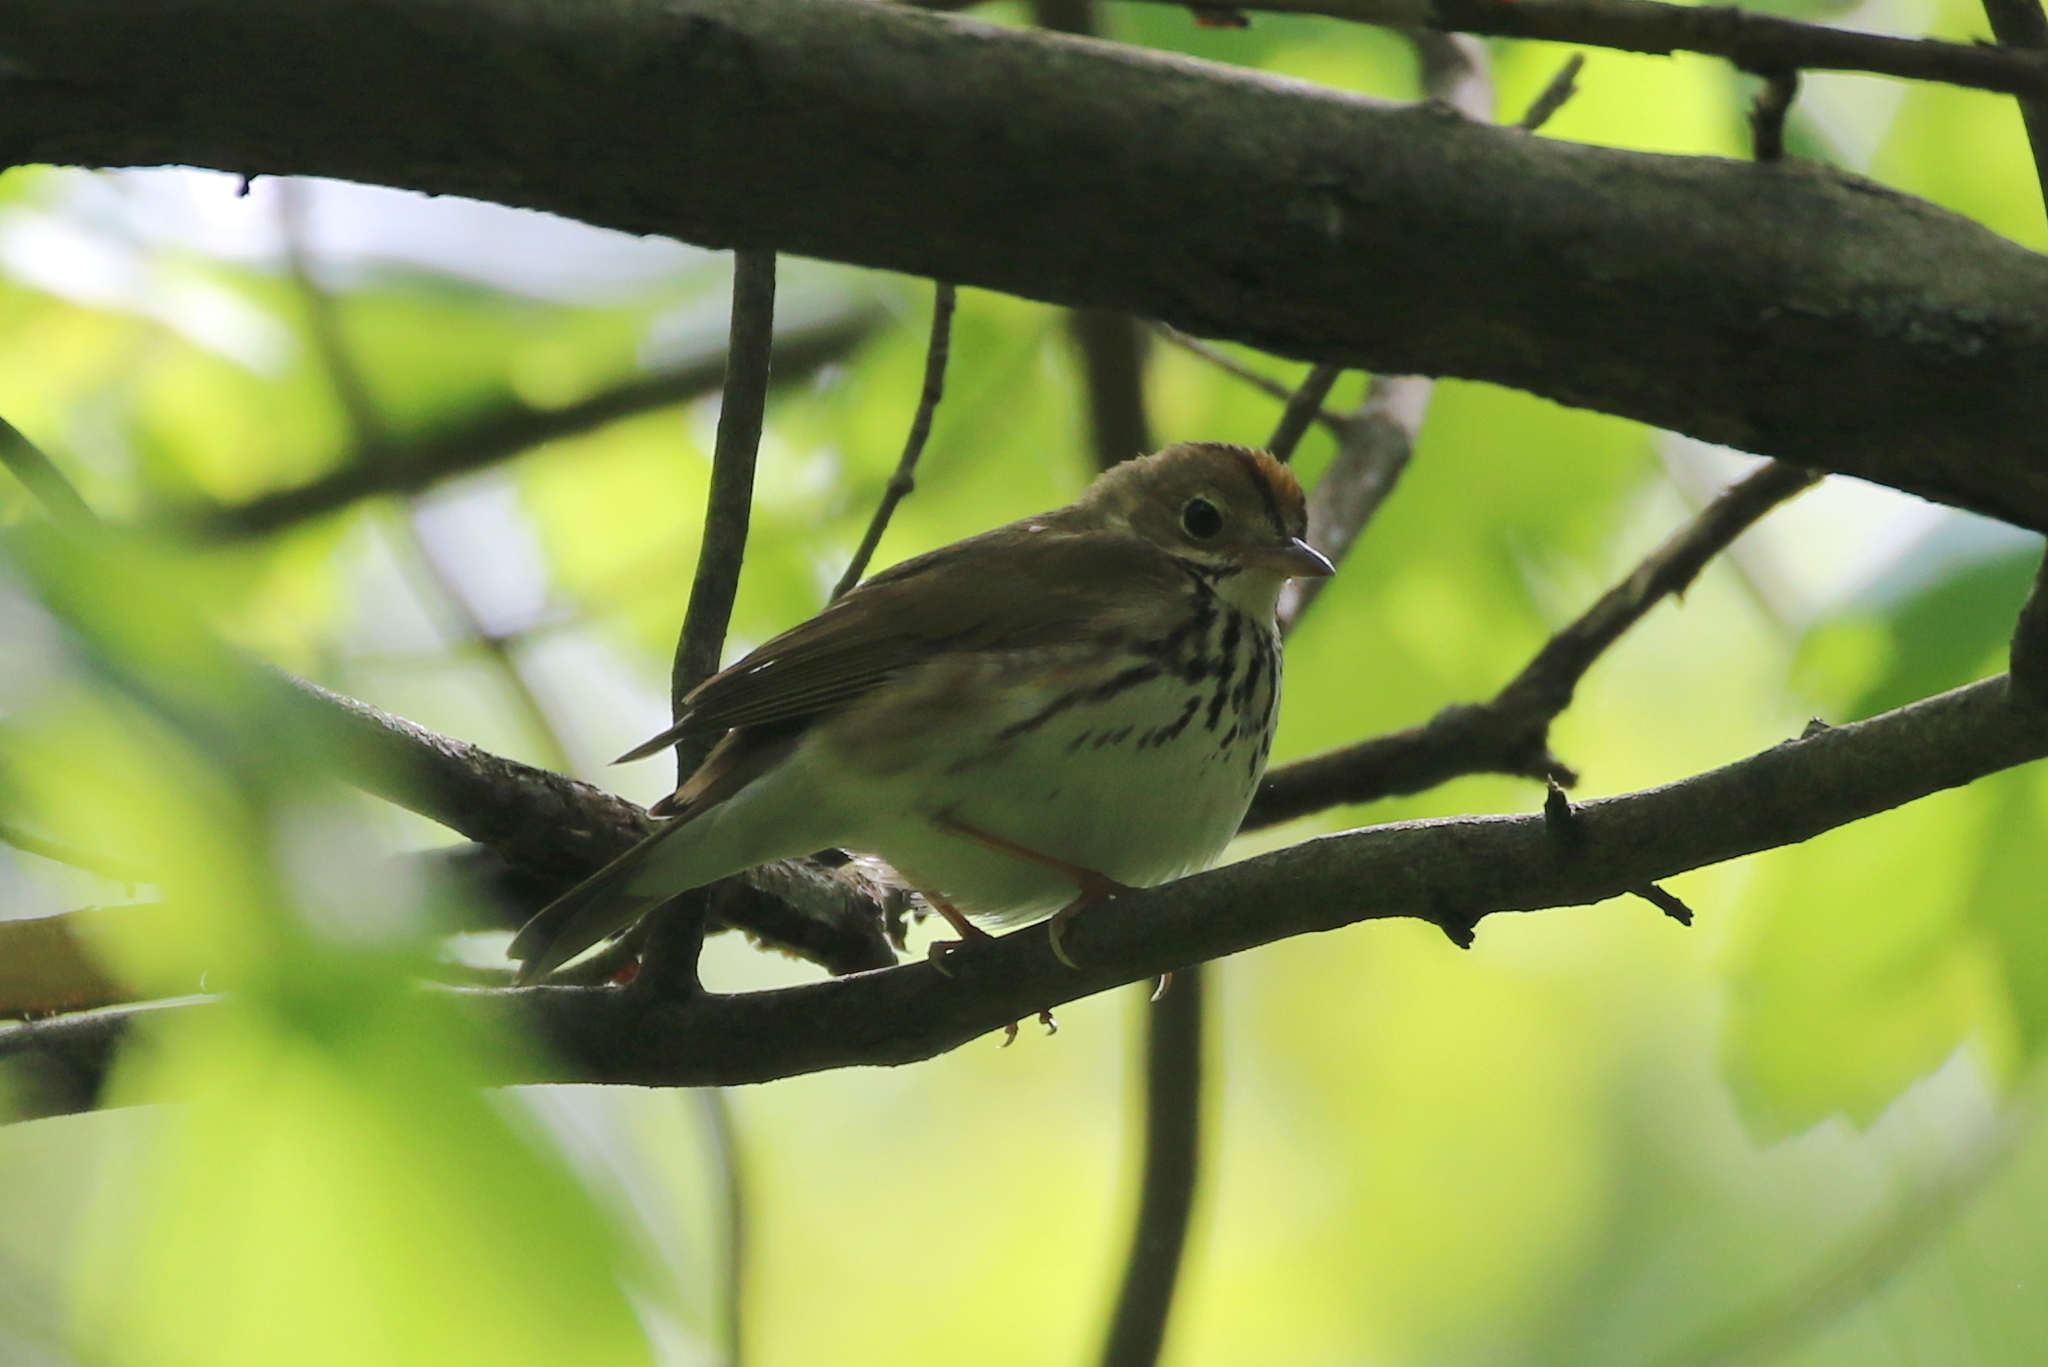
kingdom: Animalia
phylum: Chordata
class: Aves
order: Passeriformes
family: Parulidae
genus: Seiurus
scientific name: Seiurus aurocapilla
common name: Ovenbird
